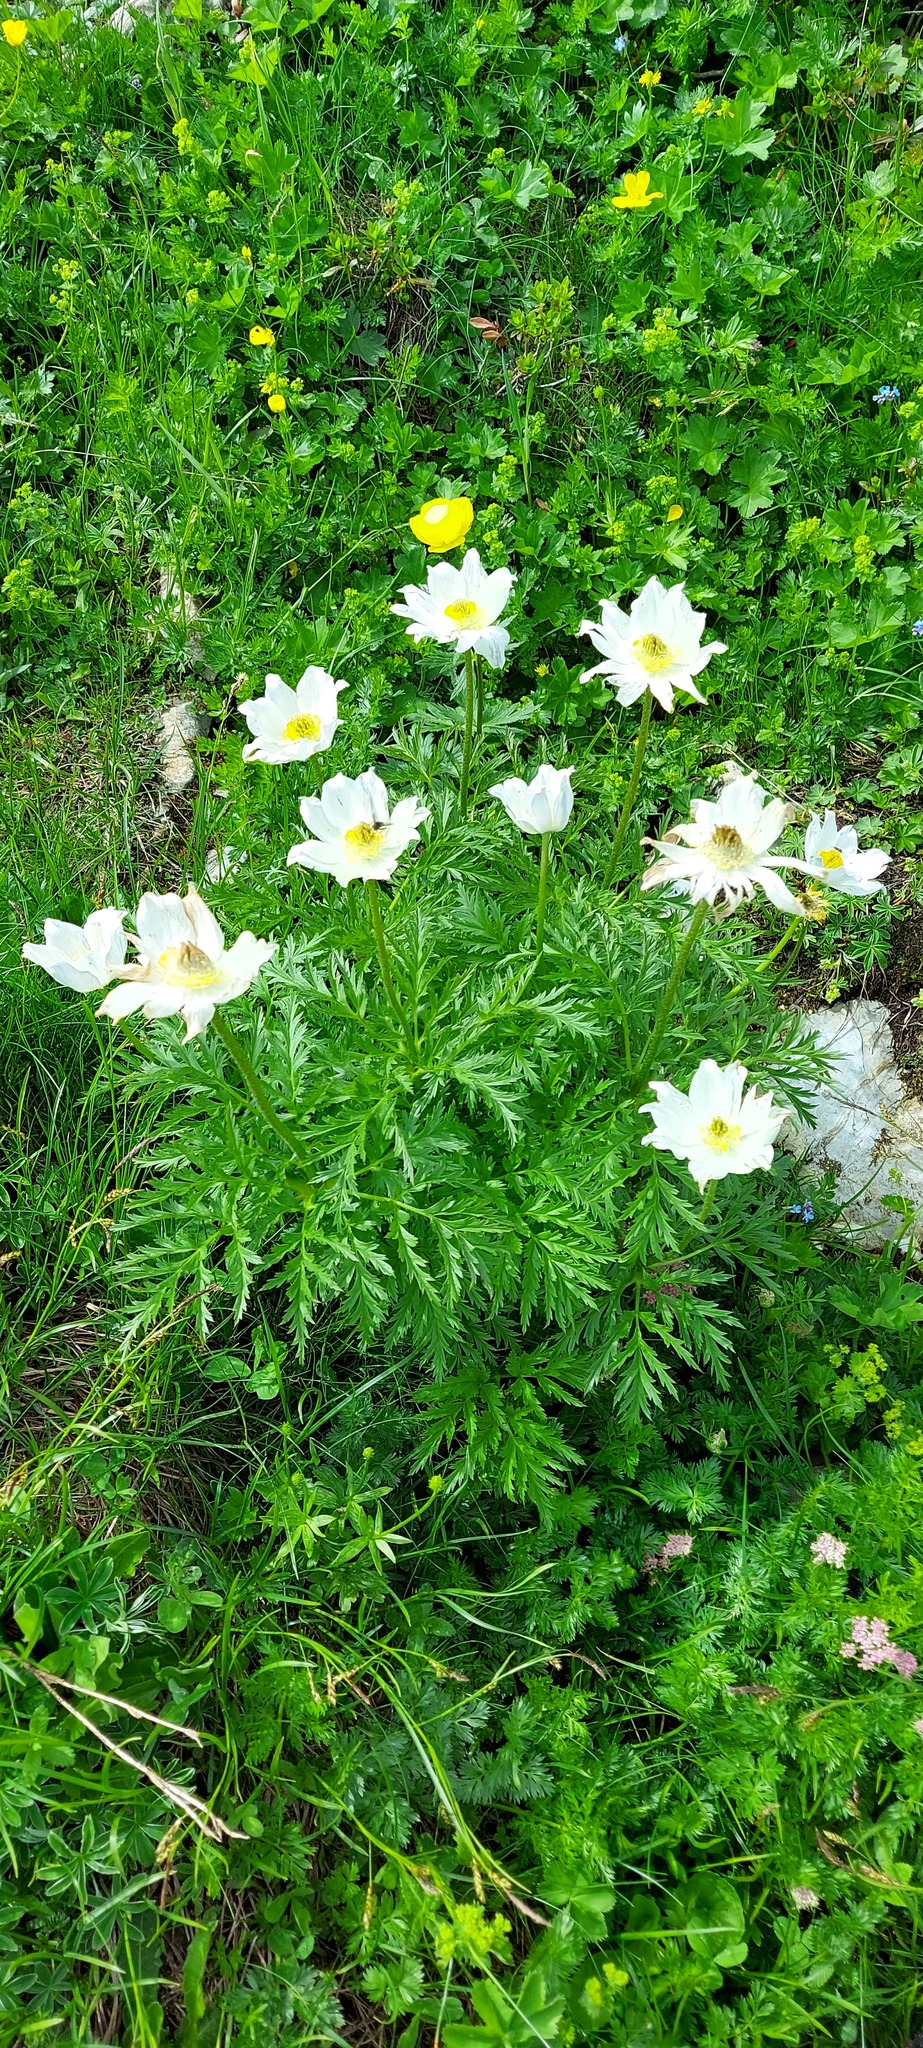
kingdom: Plantae
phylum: Tracheophyta
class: Magnoliopsida
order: Ranunculales
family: Ranunculaceae
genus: Pulsatilla
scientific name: Pulsatilla alpina
